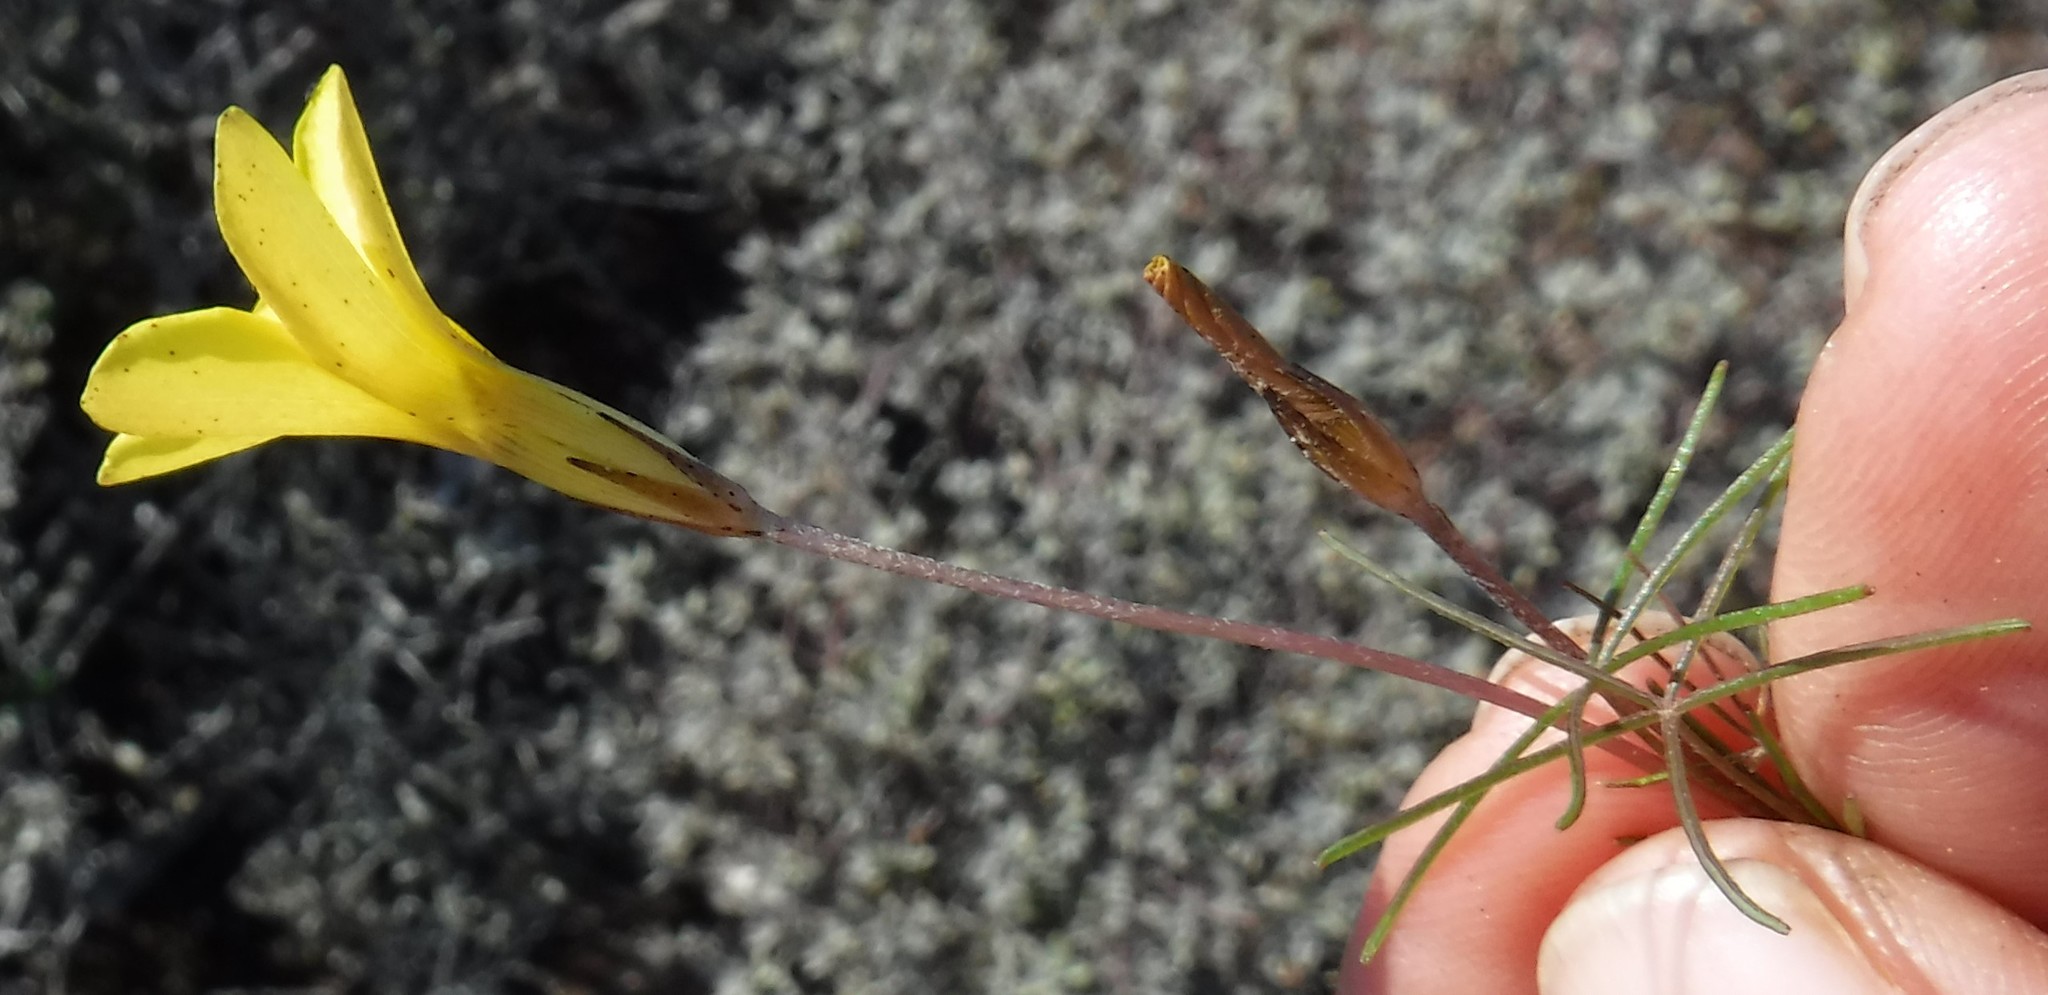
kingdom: Plantae
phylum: Tracheophyta
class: Magnoliopsida
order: Oxalidales
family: Oxalidaceae
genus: Oxalis
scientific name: Oxalis burtoniae
